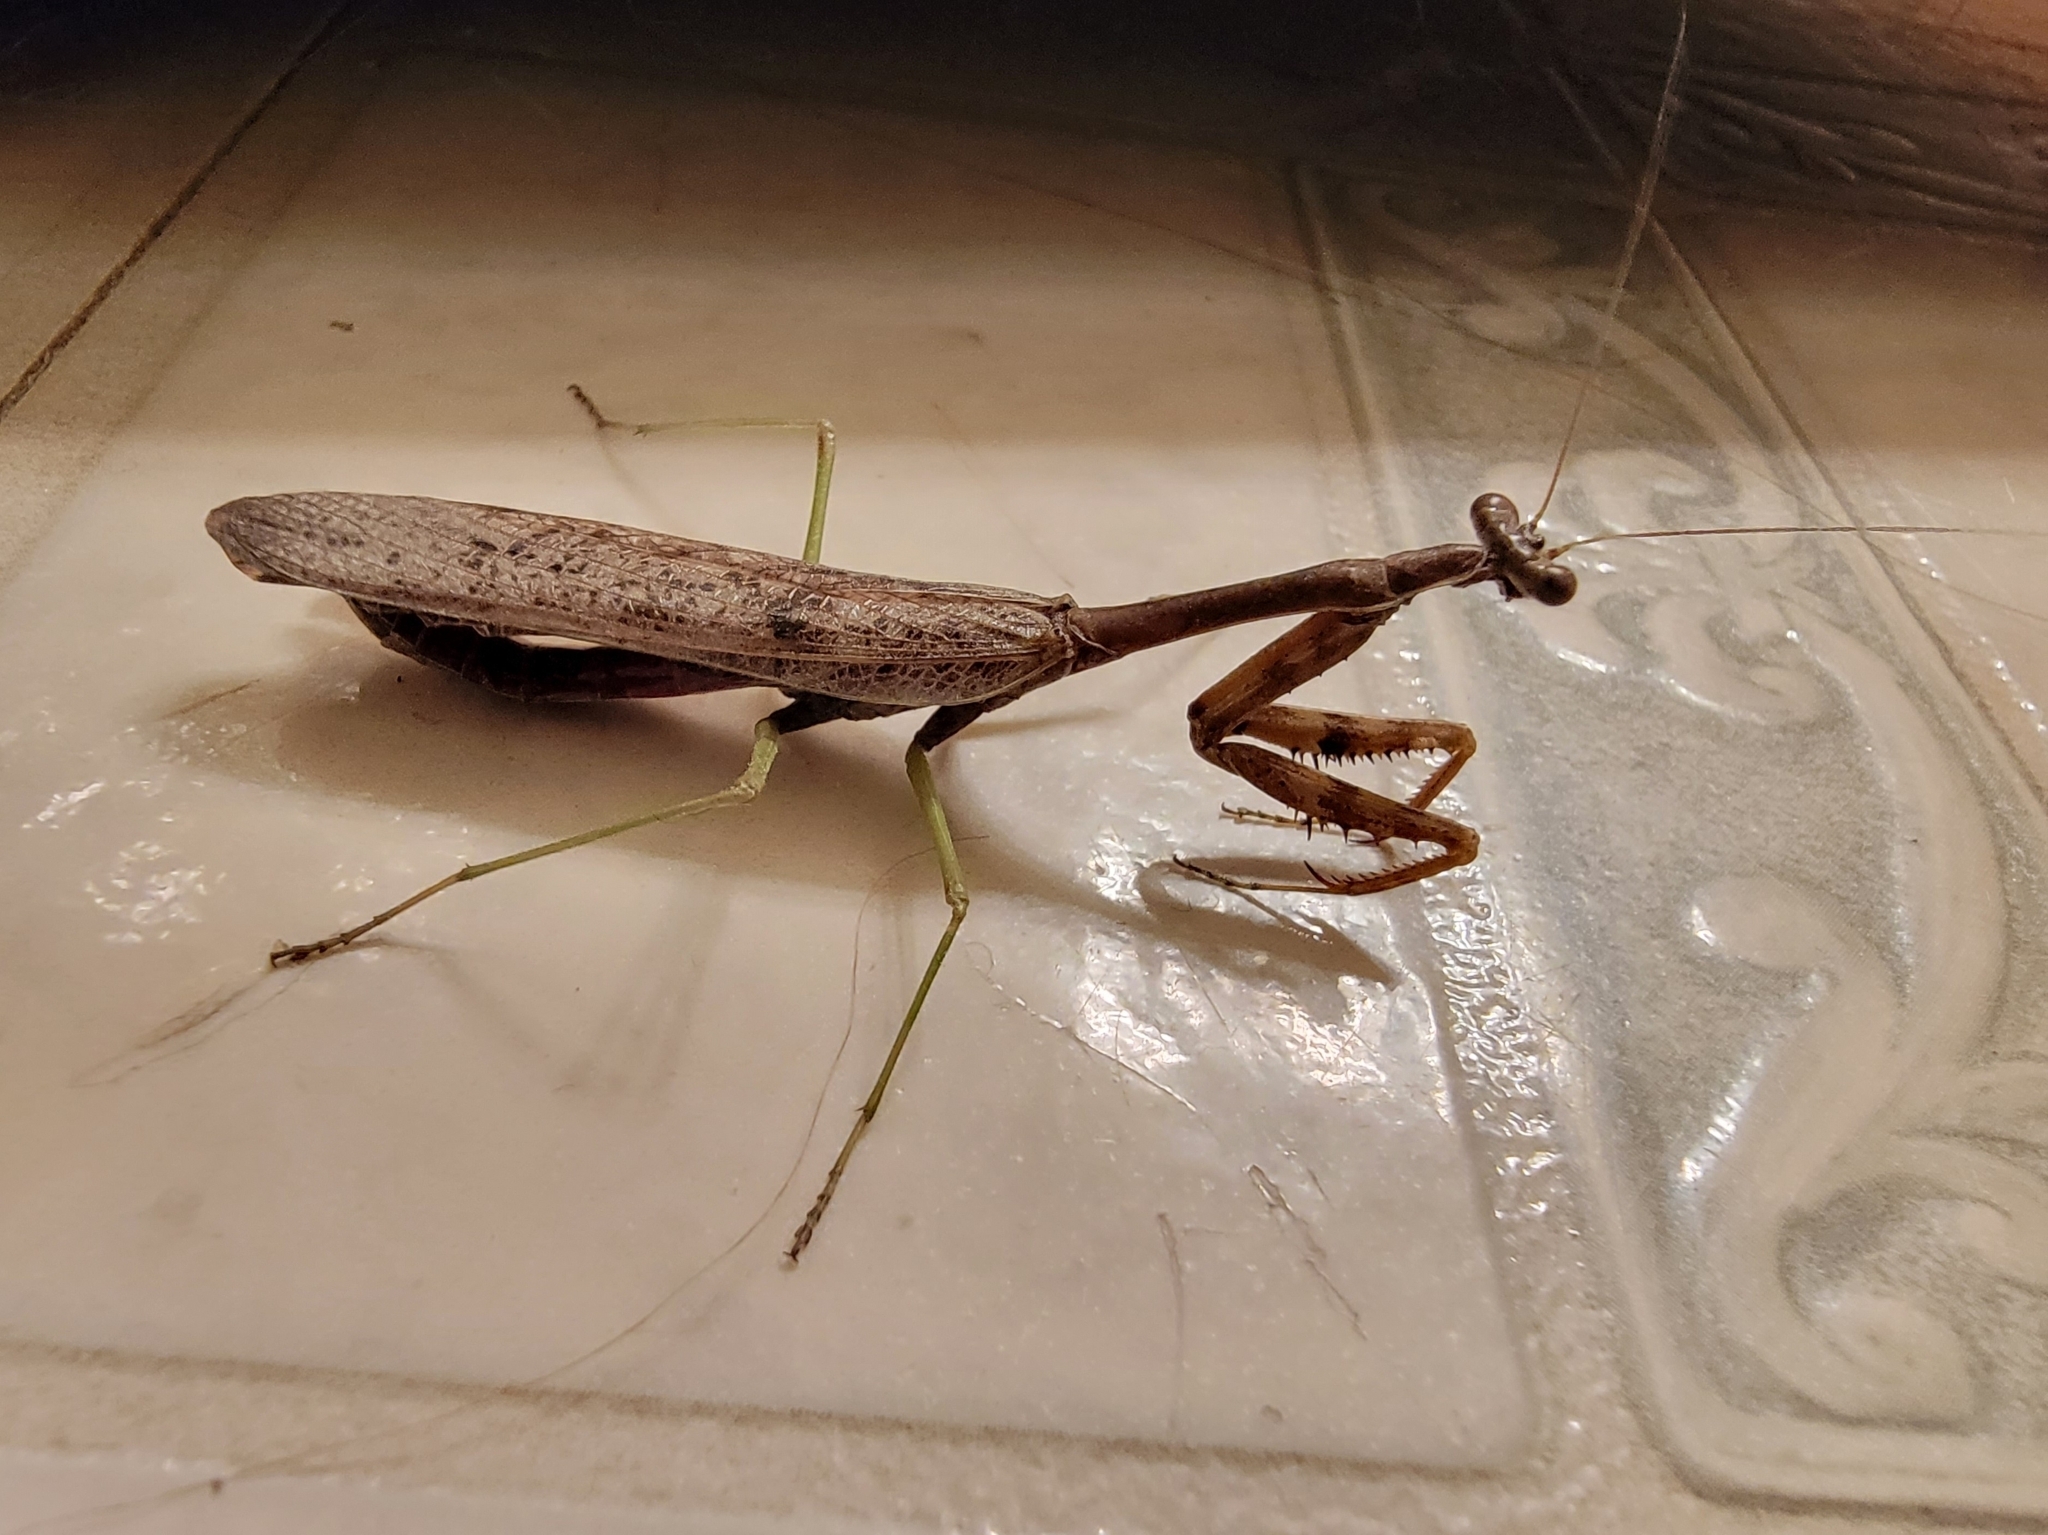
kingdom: Animalia
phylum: Arthropoda
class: Insecta
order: Mantodea
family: Mantidae
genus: Stagmomantis
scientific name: Stagmomantis carolina
